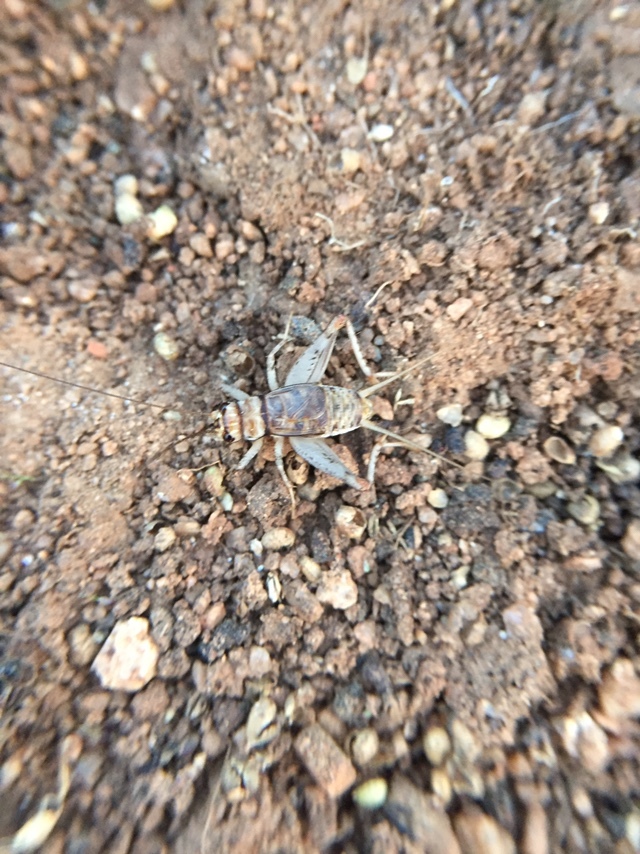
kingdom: Animalia
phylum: Arthropoda
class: Insecta
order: Orthoptera
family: Gryllidae
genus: Gryllodes
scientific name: Gryllodes sigillatus
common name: Tropical house cricket
